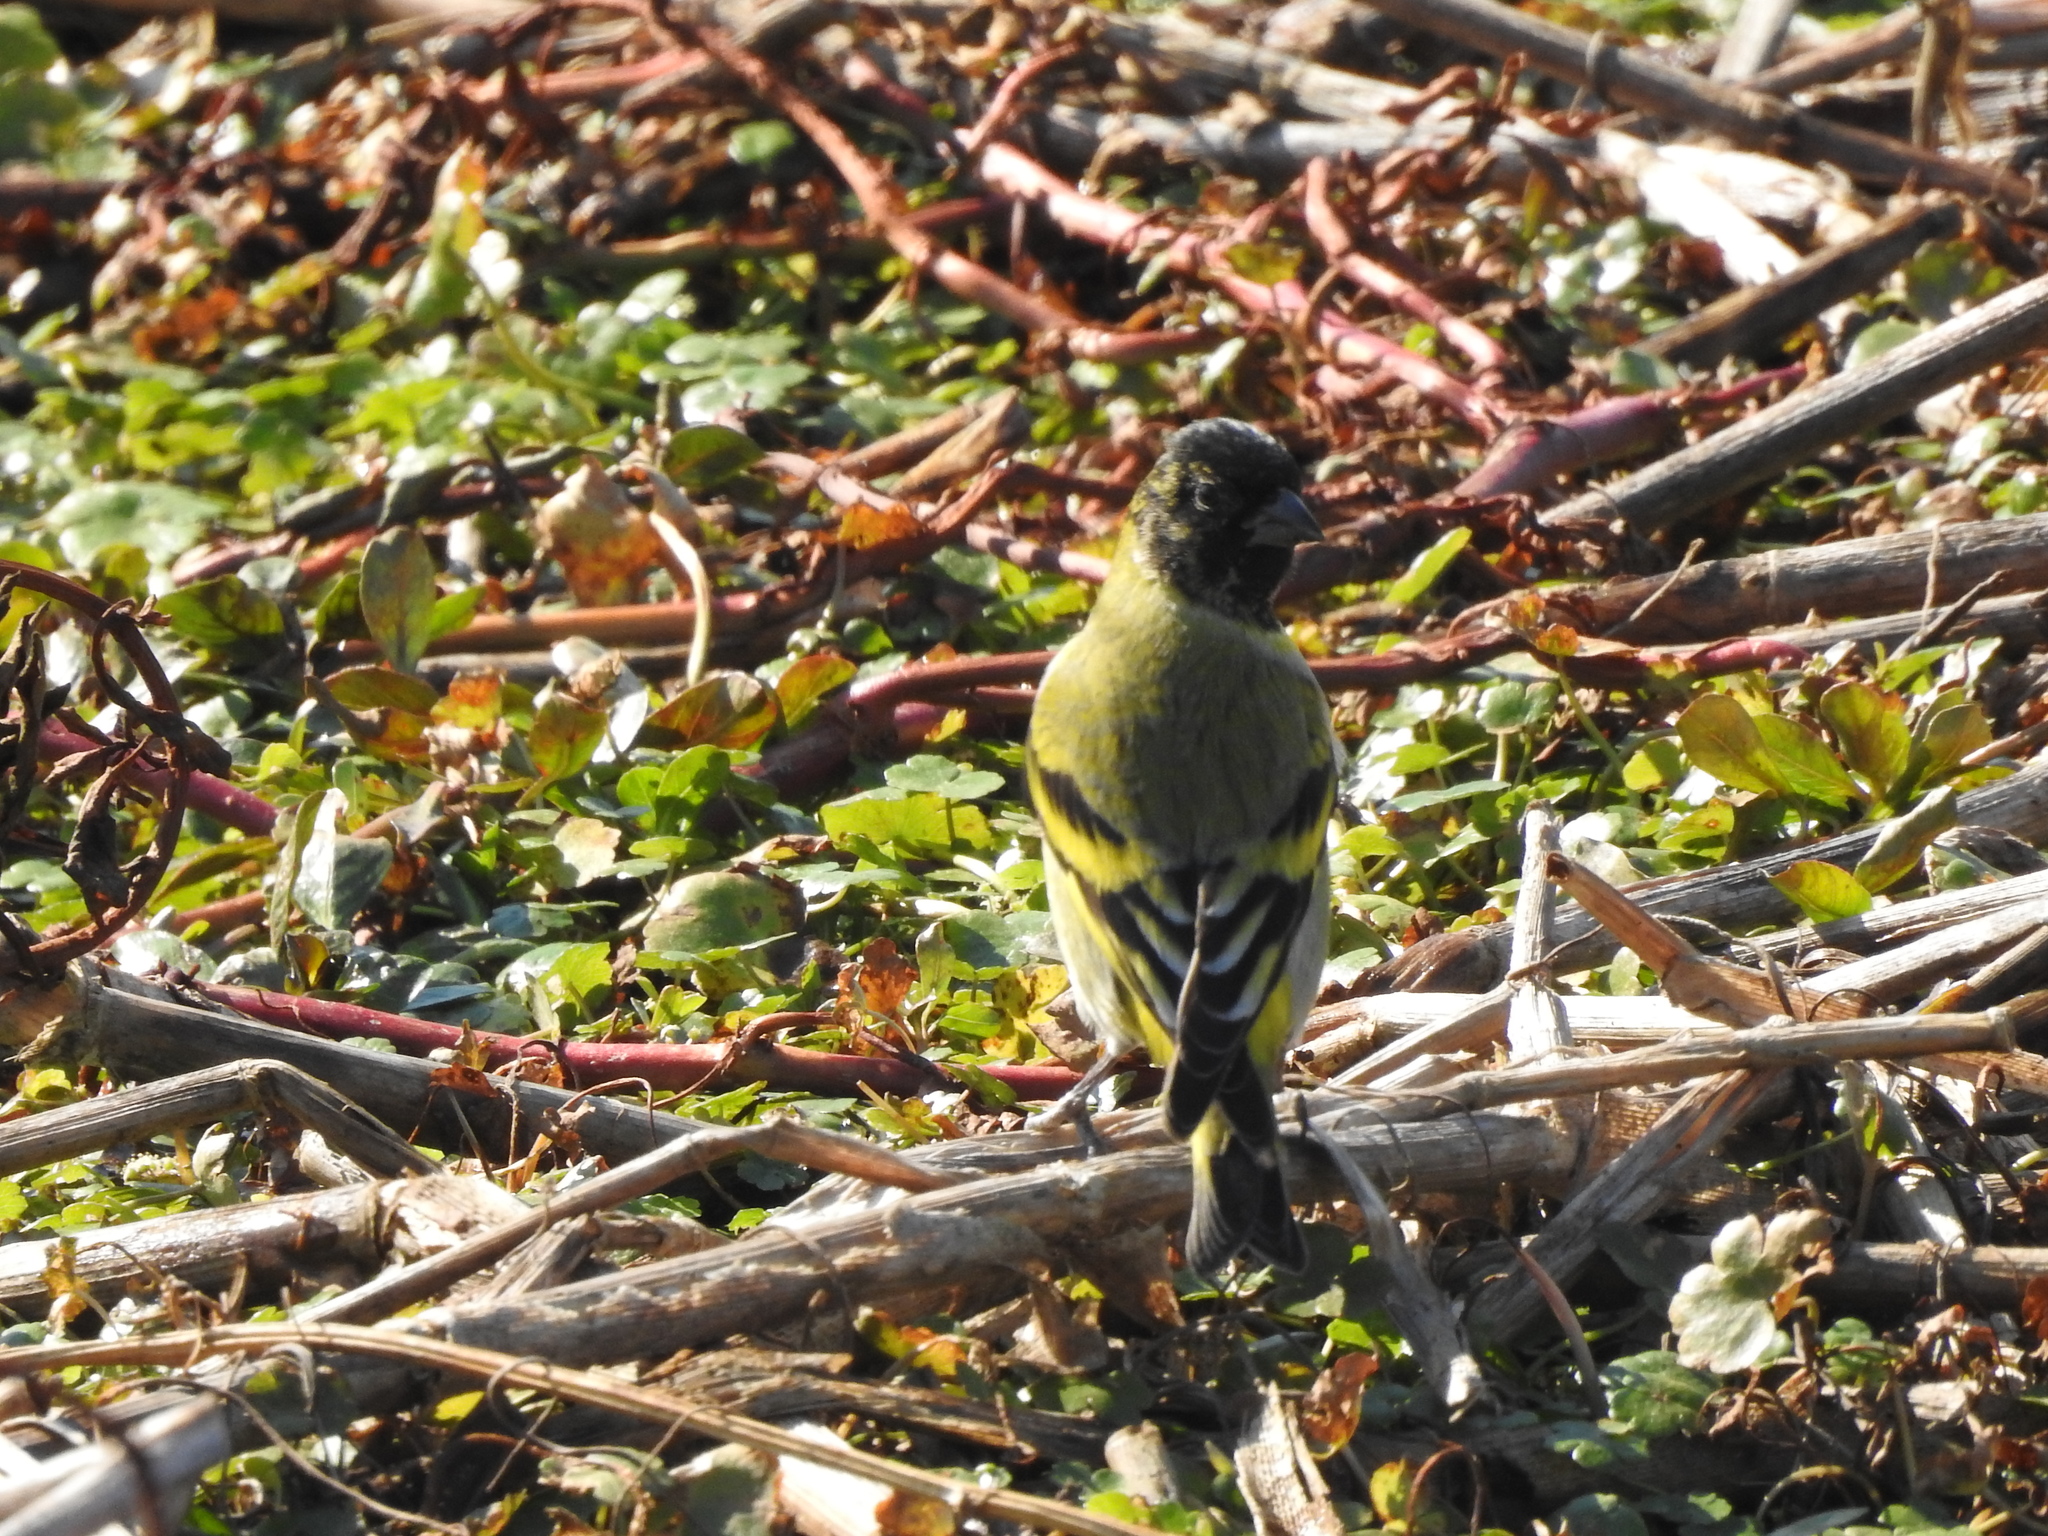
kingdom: Animalia
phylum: Chordata
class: Aves
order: Passeriformes
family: Fringillidae
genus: Spinus
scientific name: Spinus magellanicus
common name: Hooded siskin
